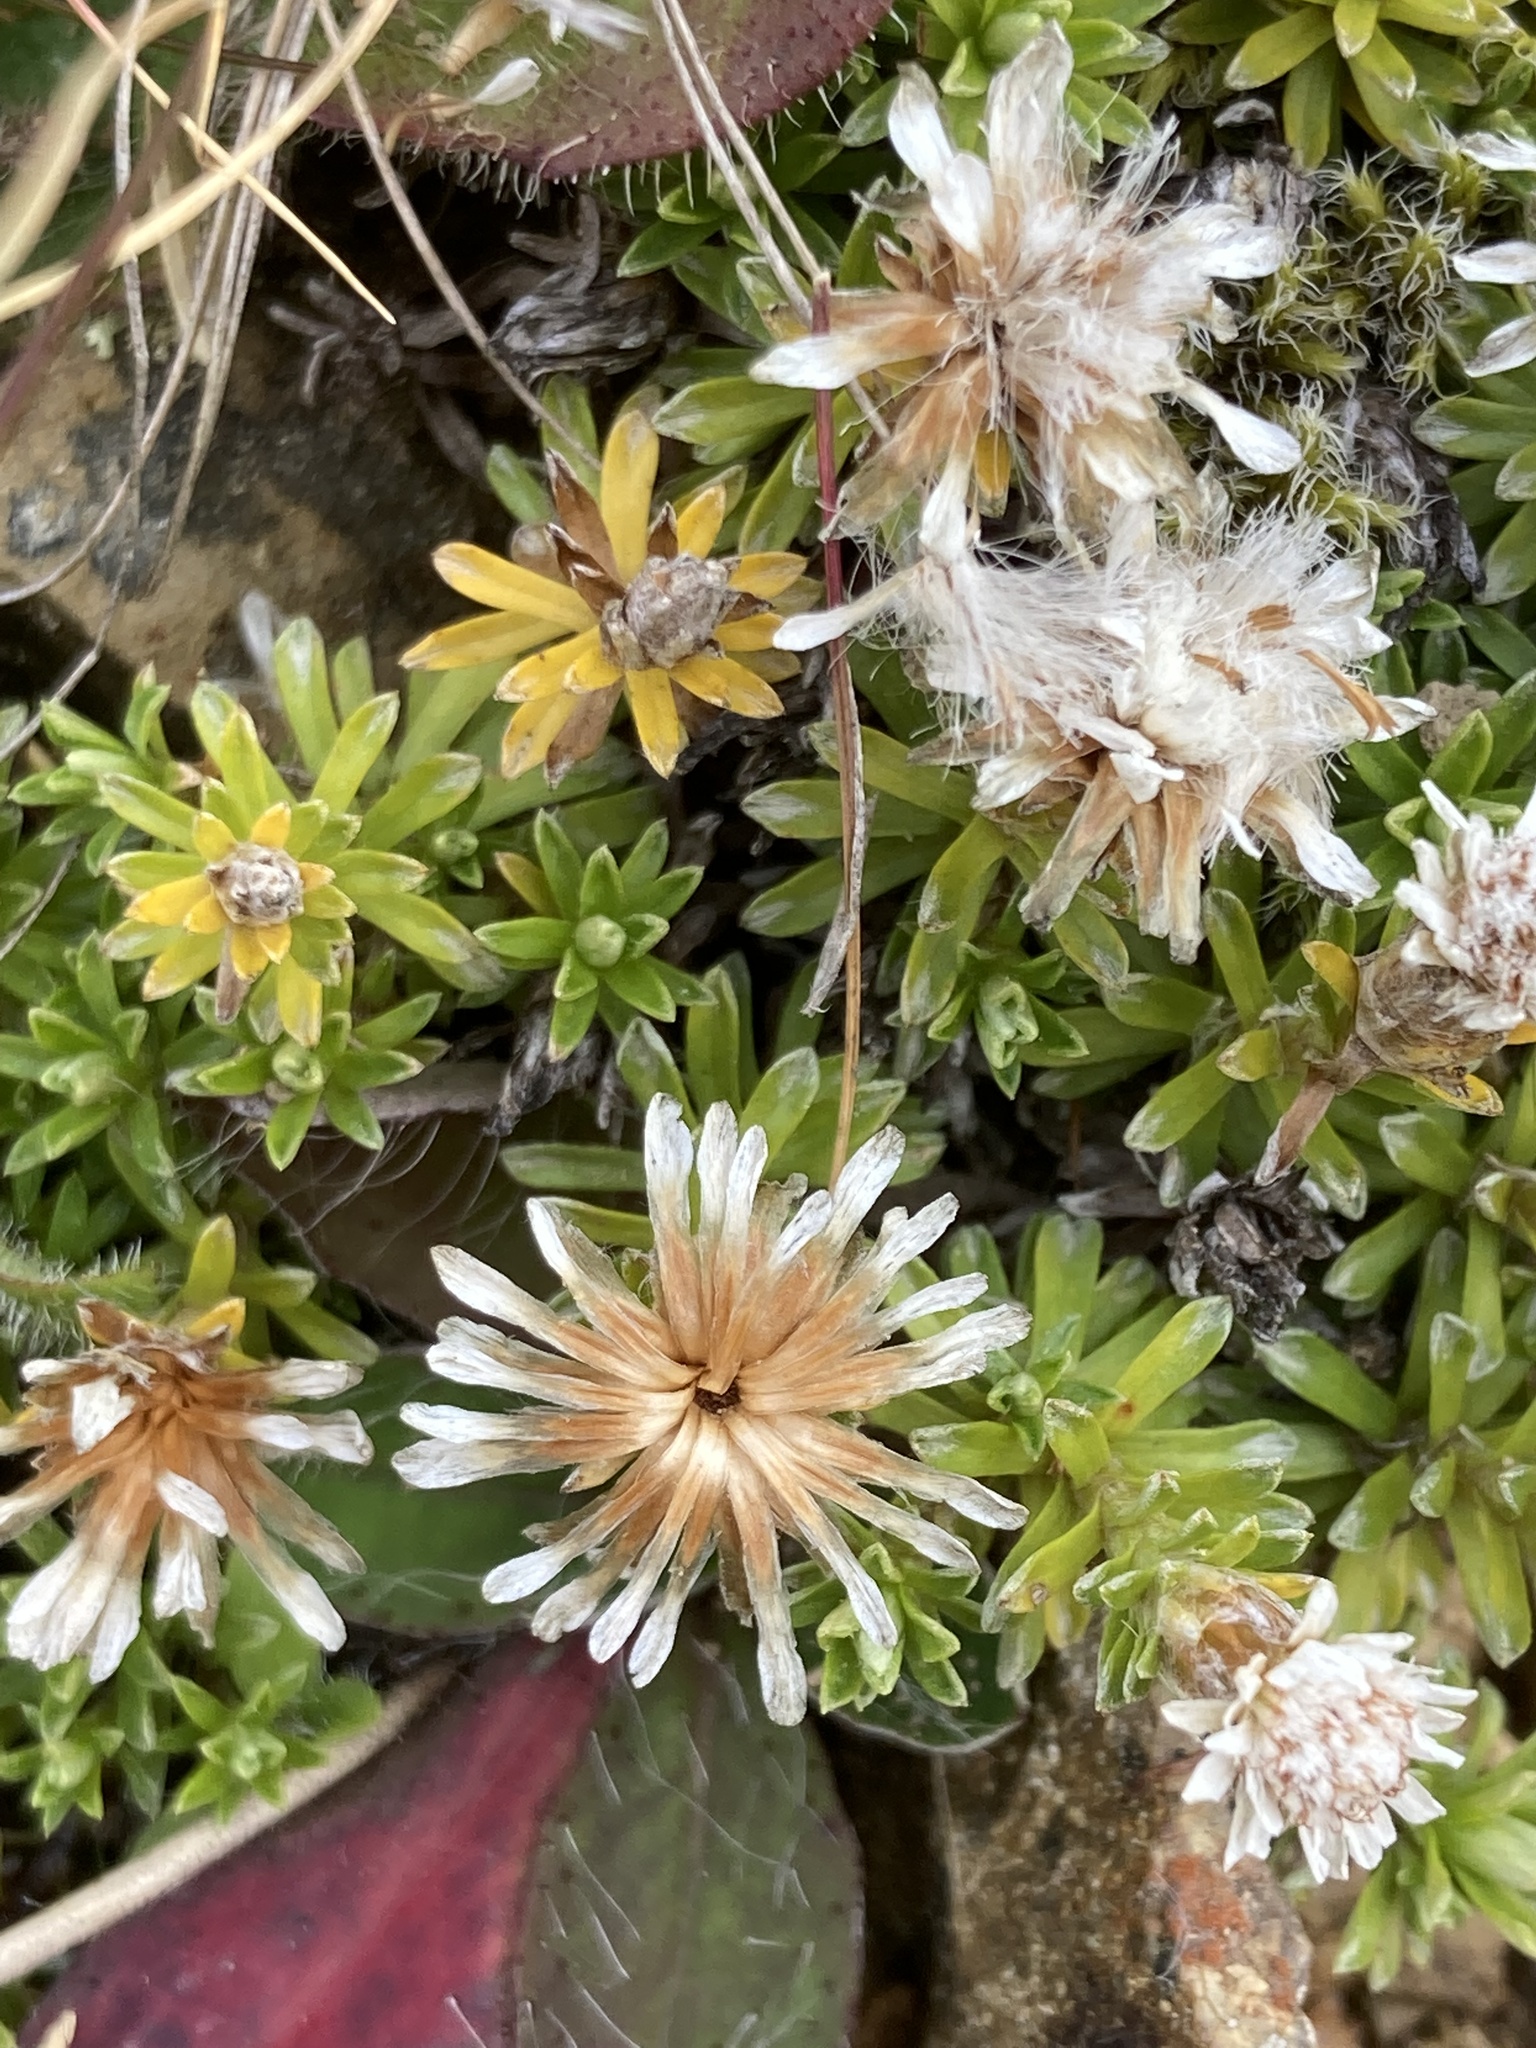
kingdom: Plantae
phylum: Tracheophyta
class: Magnoliopsida
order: Asterales
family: Asteraceae
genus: Raoulia
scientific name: Raoulia subsericea
